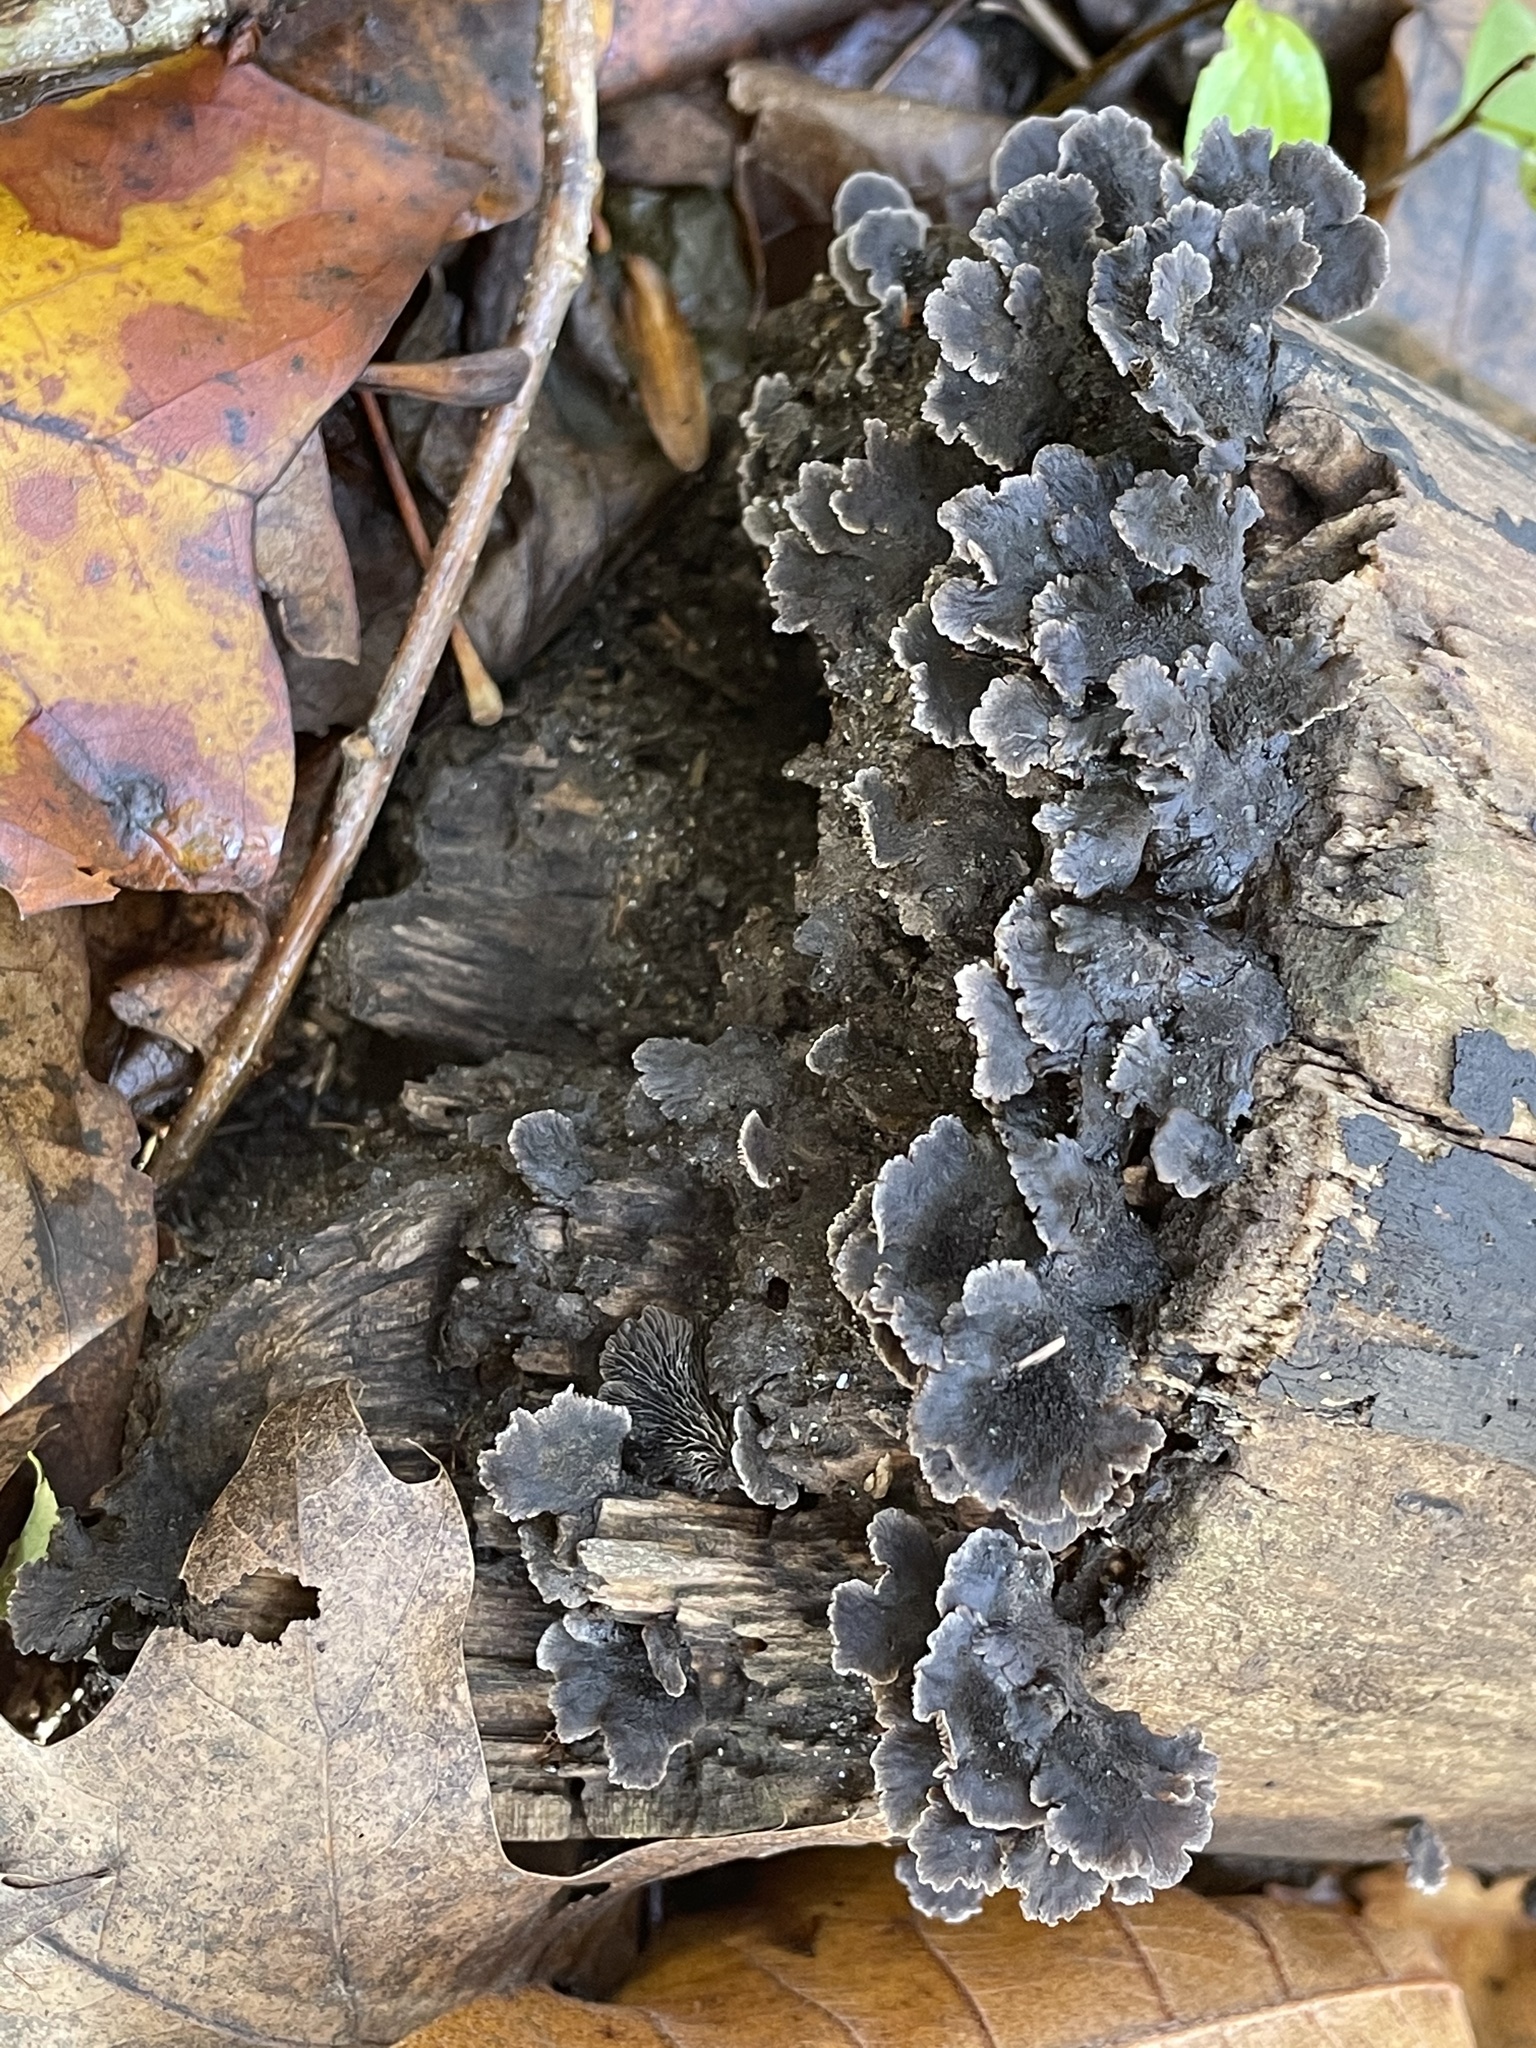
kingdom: Fungi
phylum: Basidiomycota
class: Agaricomycetes
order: Agaricales
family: Pleurotaceae
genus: Resupinatus
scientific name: Resupinatus applicatus
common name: Smoked oysterling
